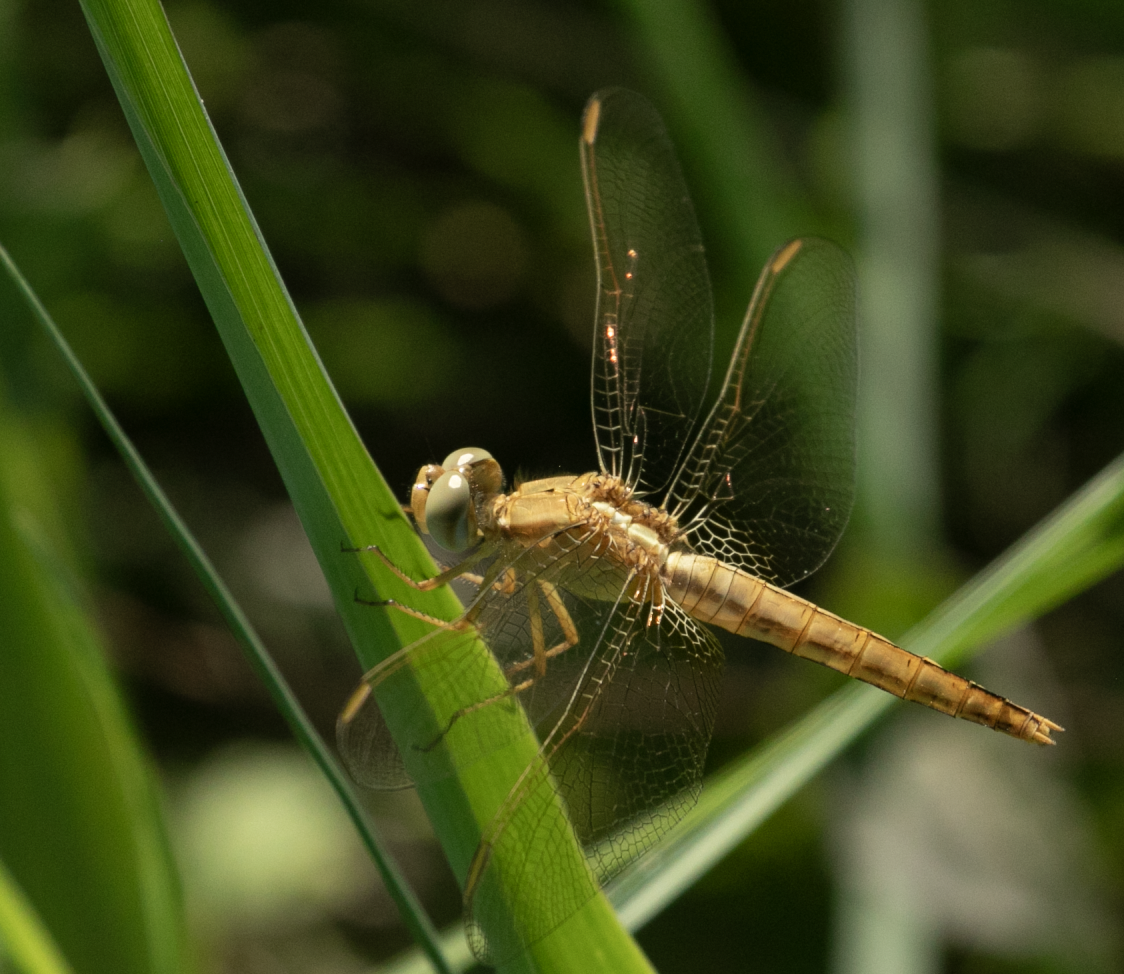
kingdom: Animalia
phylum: Arthropoda
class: Insecta
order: Odonata
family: Libellulidae
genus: Crocothemis
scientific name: Crocothemis erythraea
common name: Scarlet dragonfly
